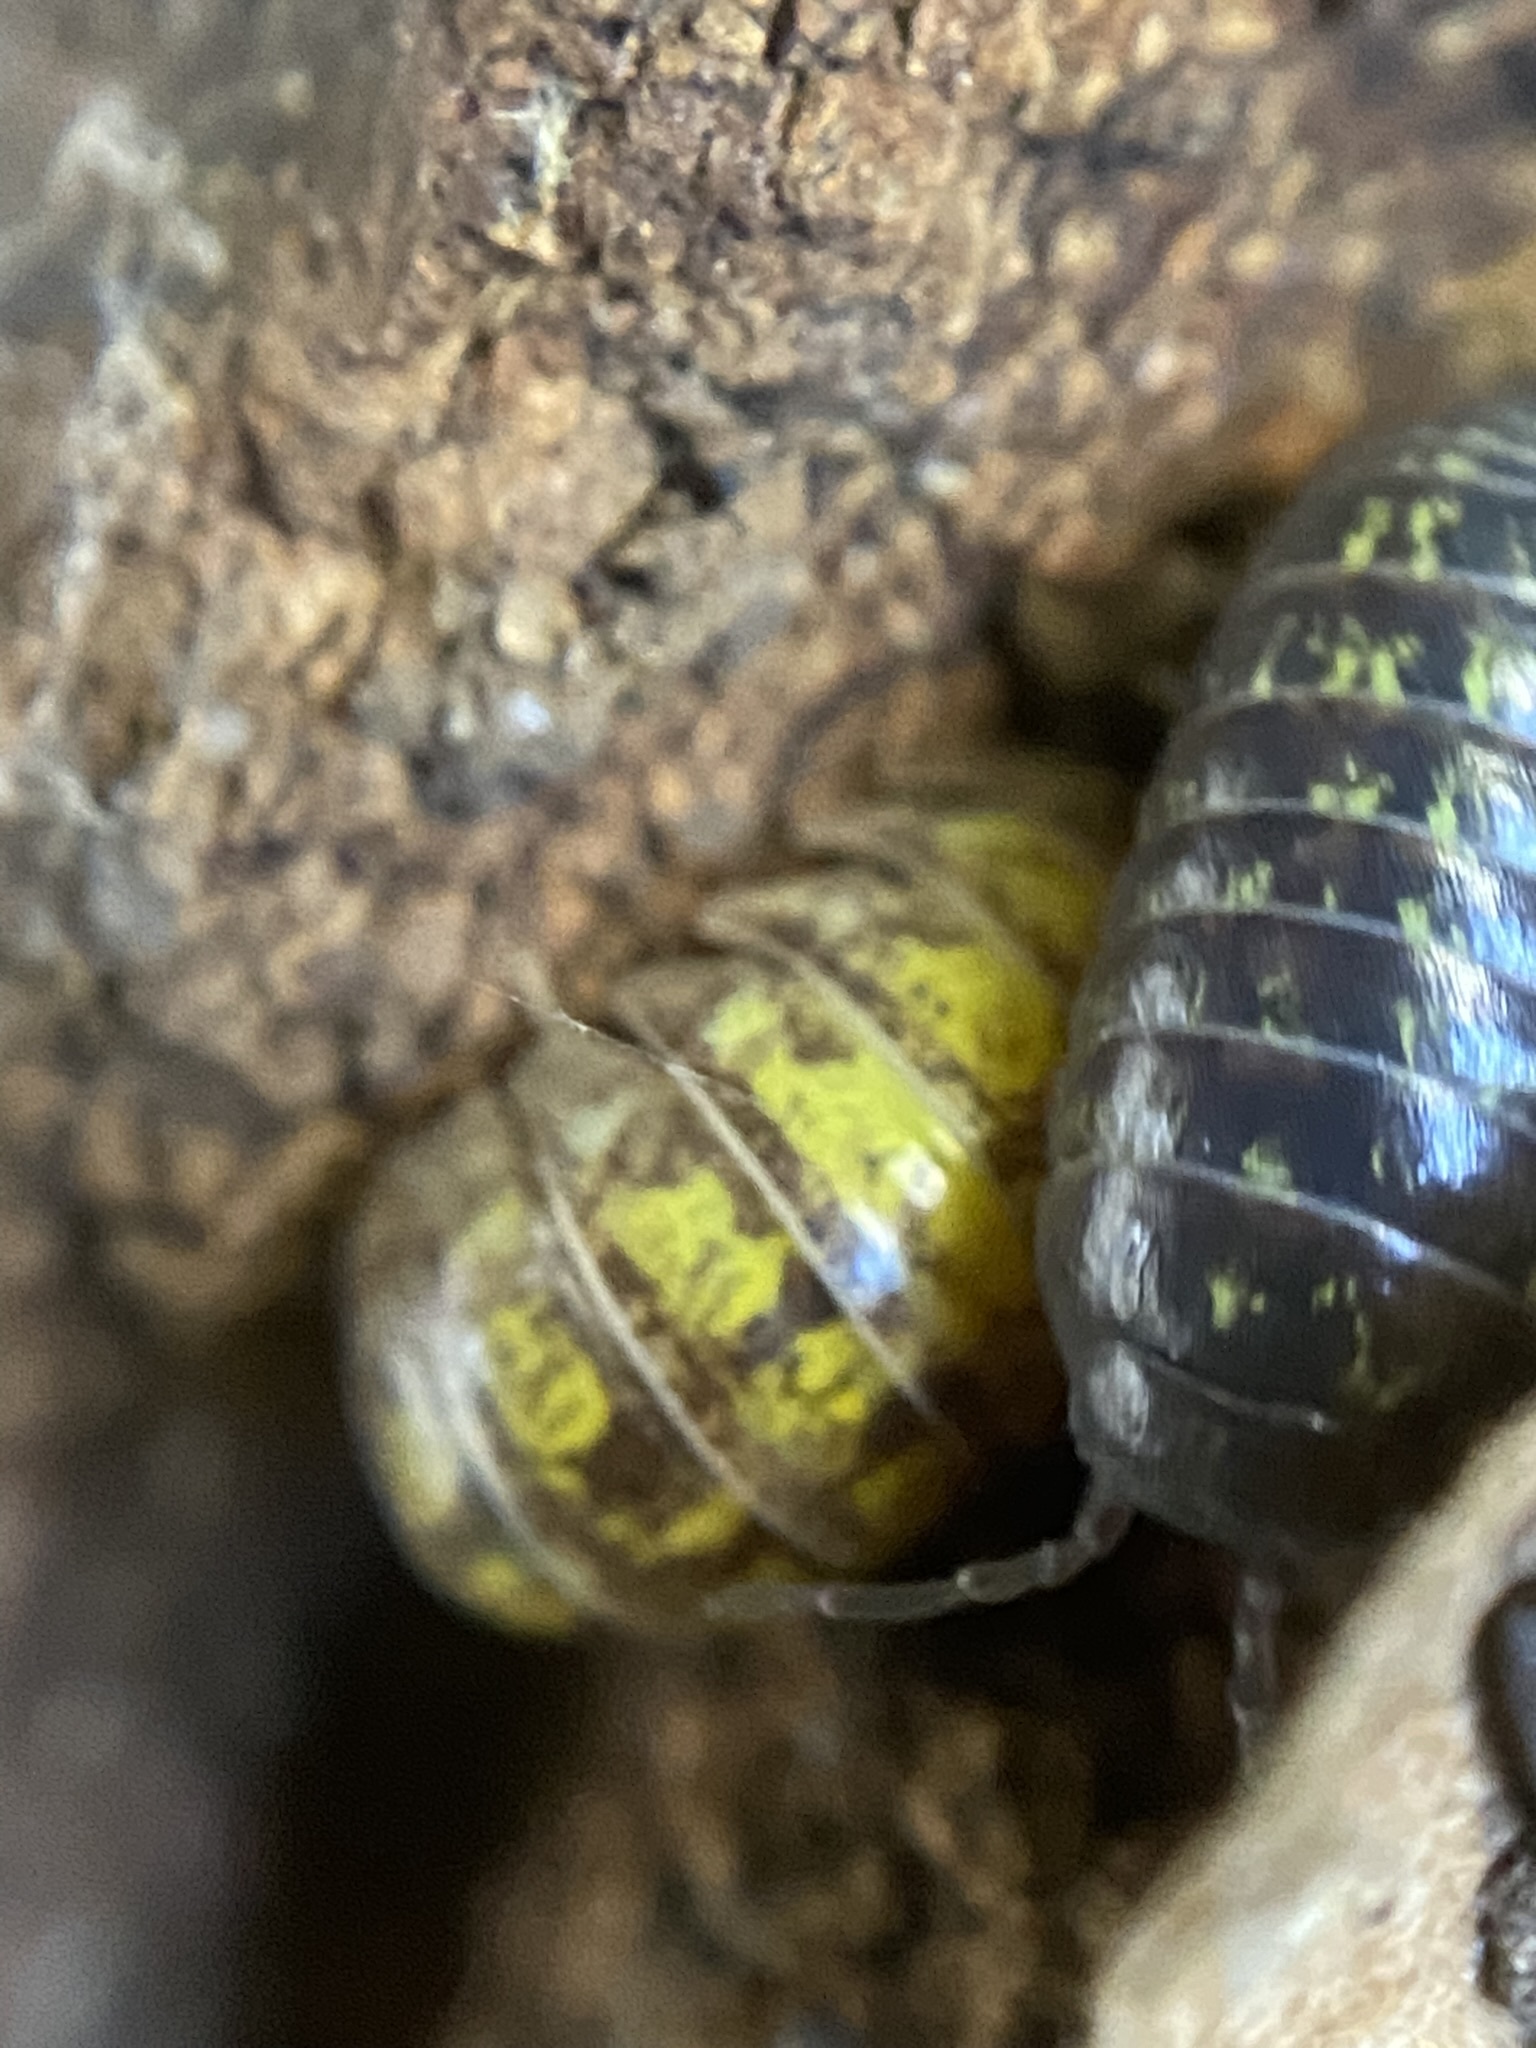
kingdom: Animalia
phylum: Arthropoda
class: Malacostraca
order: Isopoda
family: Armadillidiidae
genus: Armadillidium
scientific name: Armadillidium vulgare
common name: Common pill woodlouse
